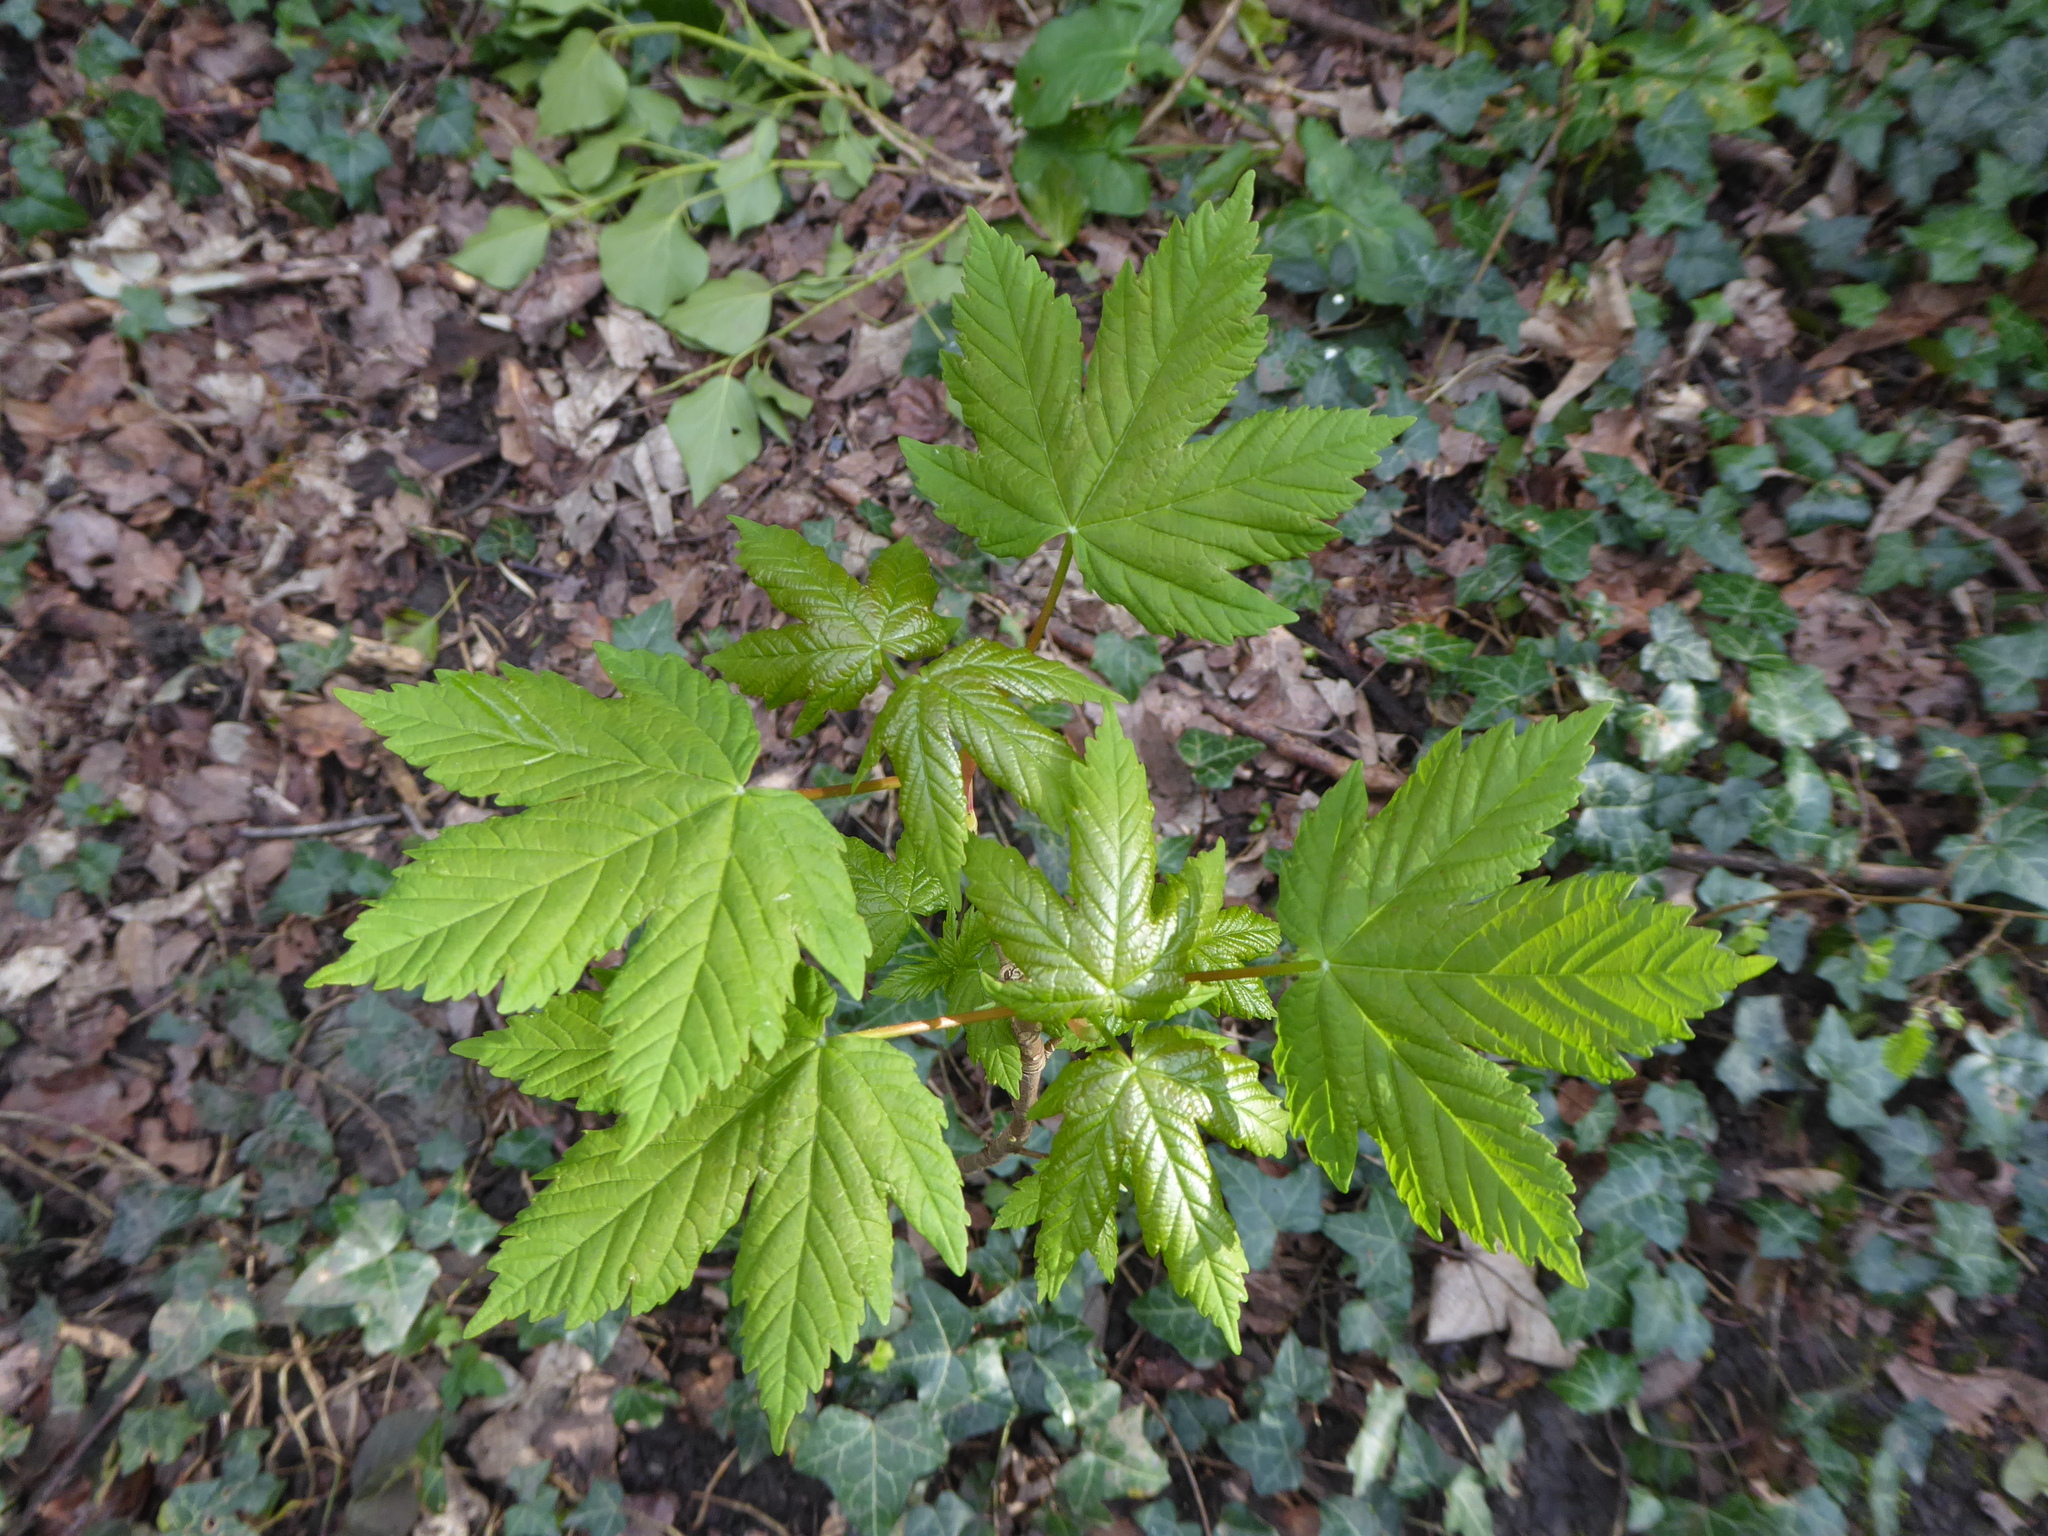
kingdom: Plantae
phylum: Tracheophyta
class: Magnoliopsida
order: Sapindales
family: Sapindaceae
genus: Acer
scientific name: Acer pseudoplatanus
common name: Sycamore
